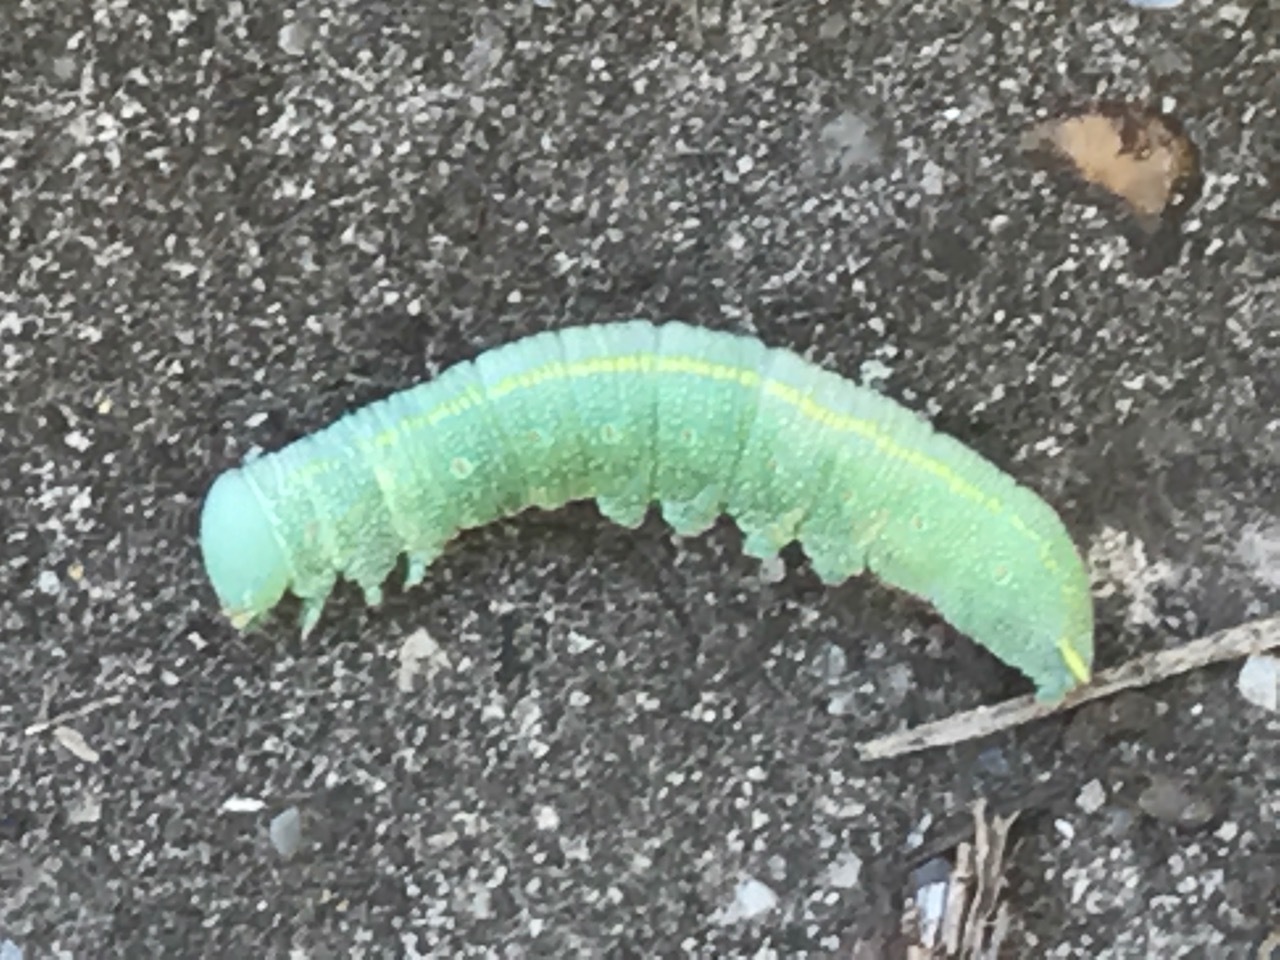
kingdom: Animalia
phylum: Arthropoda
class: Insecta
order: Lepidoptera
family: Pieridae
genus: Pieris
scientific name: Pieris rapae
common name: Small white
